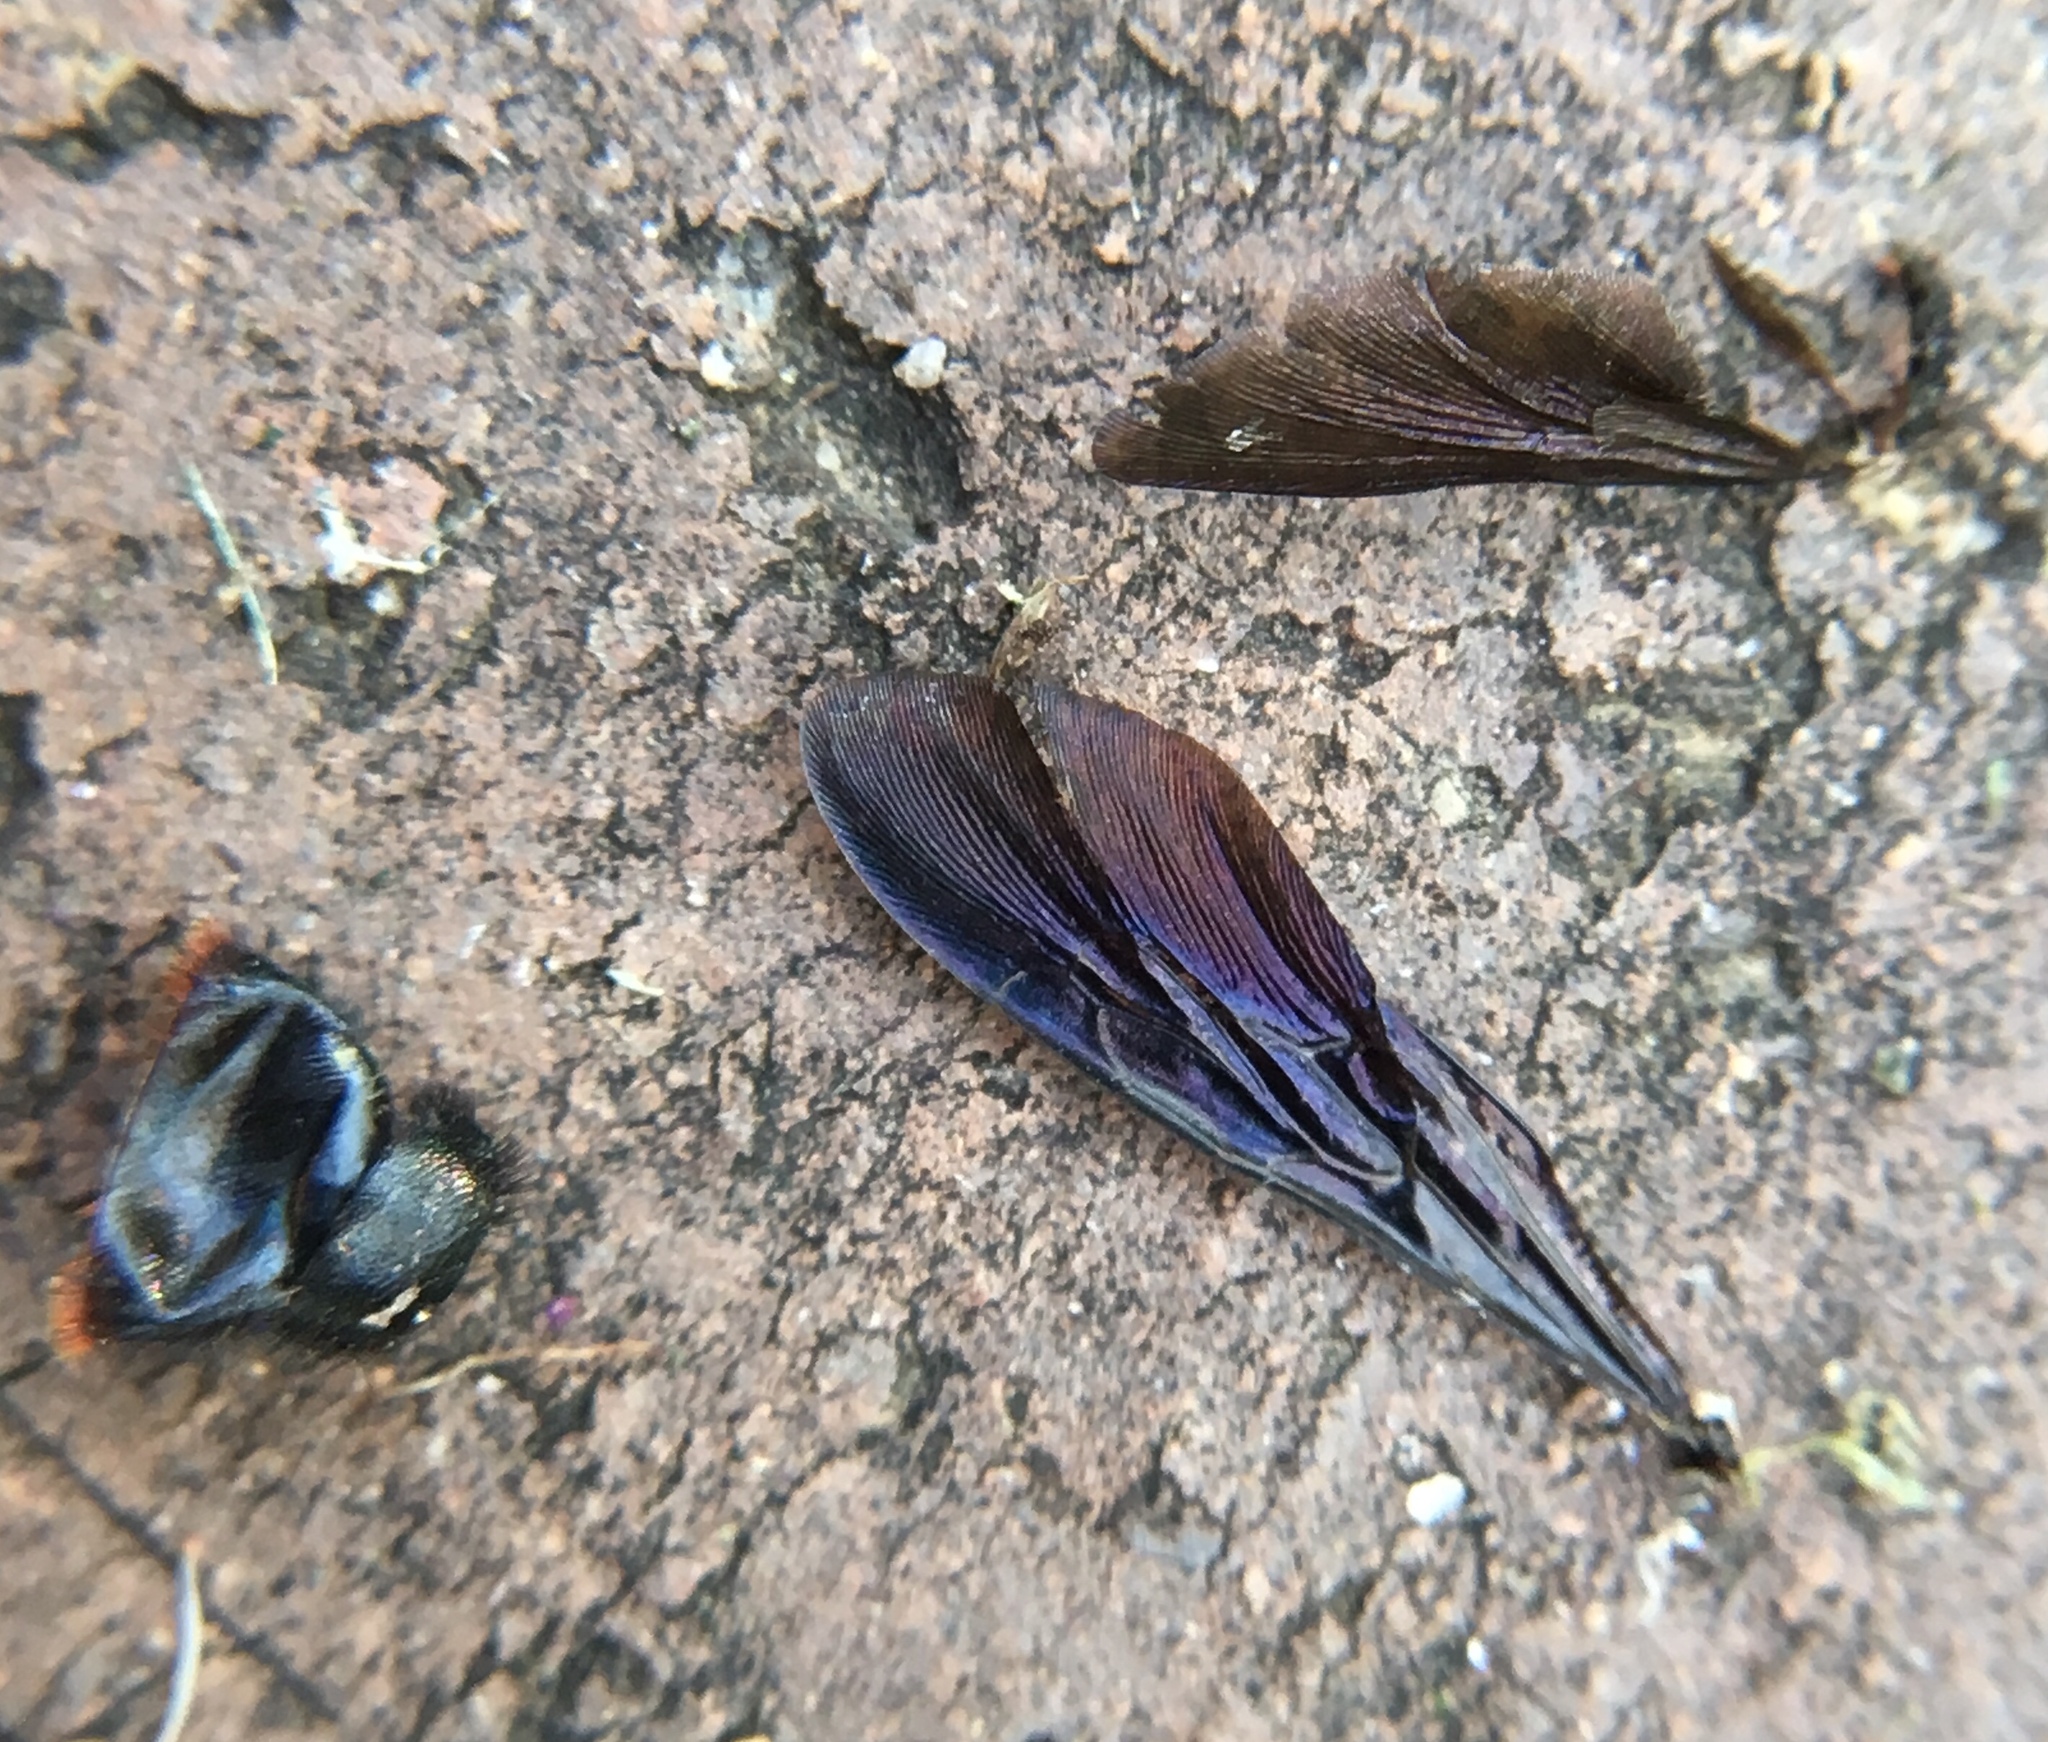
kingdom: Animalia
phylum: Arthropoda
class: Insecta
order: Hymenoptera
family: Scoliidae
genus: Scolia
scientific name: Scolia dubia
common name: Blue-winged scoliid wasp
